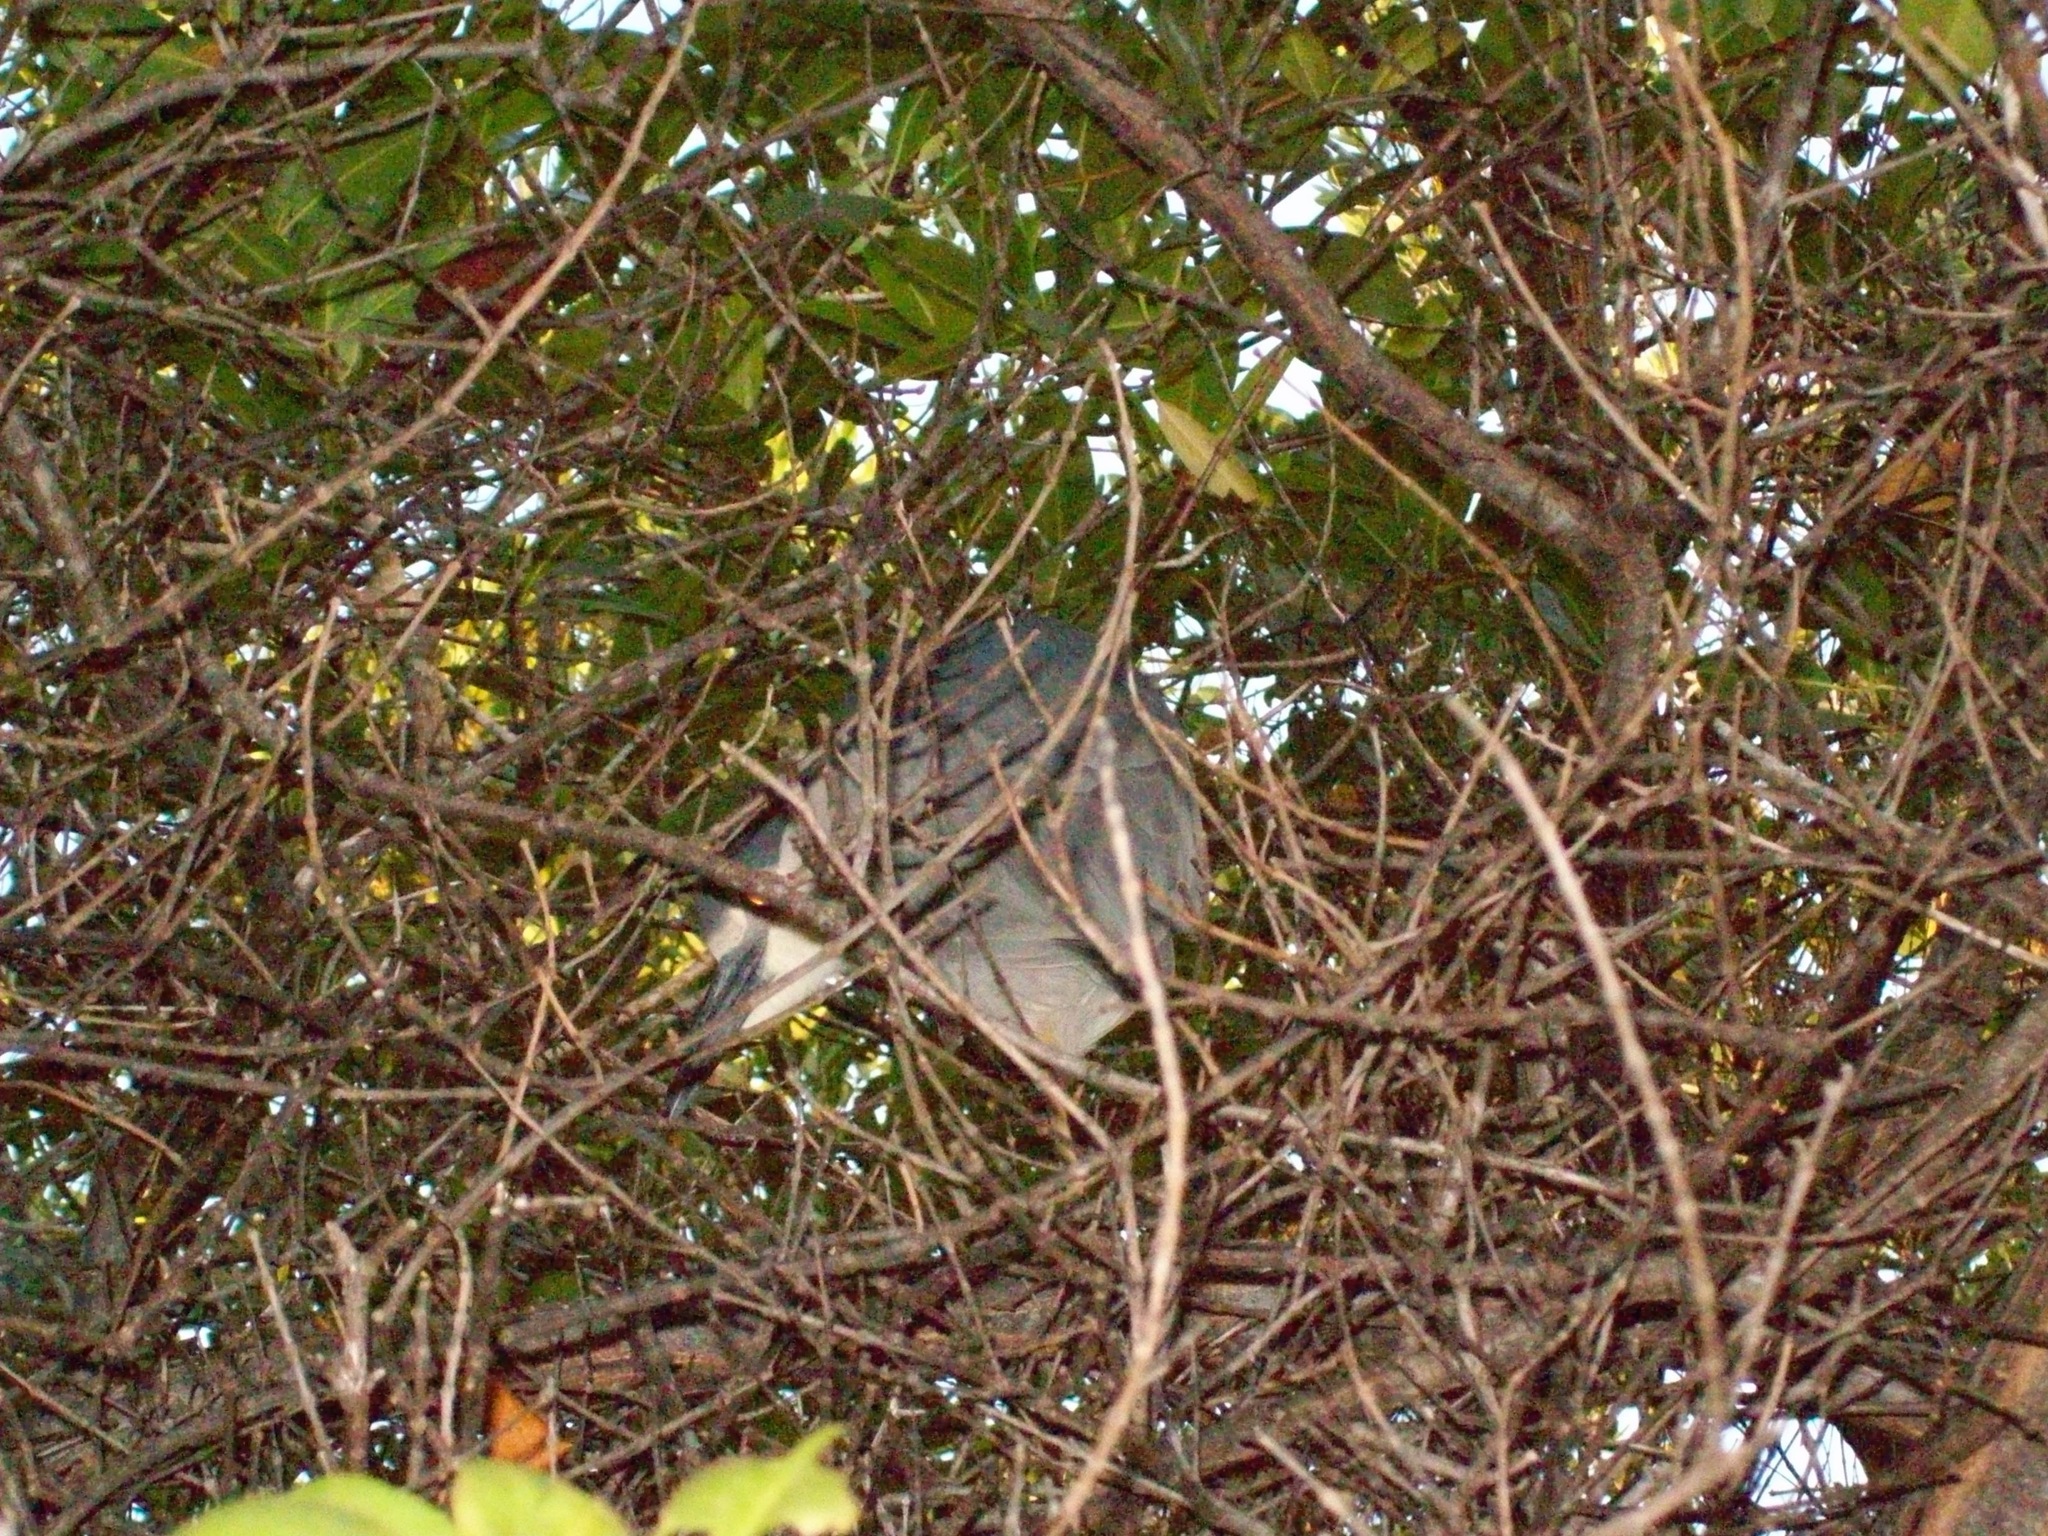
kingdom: Animalia
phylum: Chordata
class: Aves
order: Pelecaniformes
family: Ardeidae
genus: Nycticorax
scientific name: Nycticorax nycticorax
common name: Black-crowned night heron
